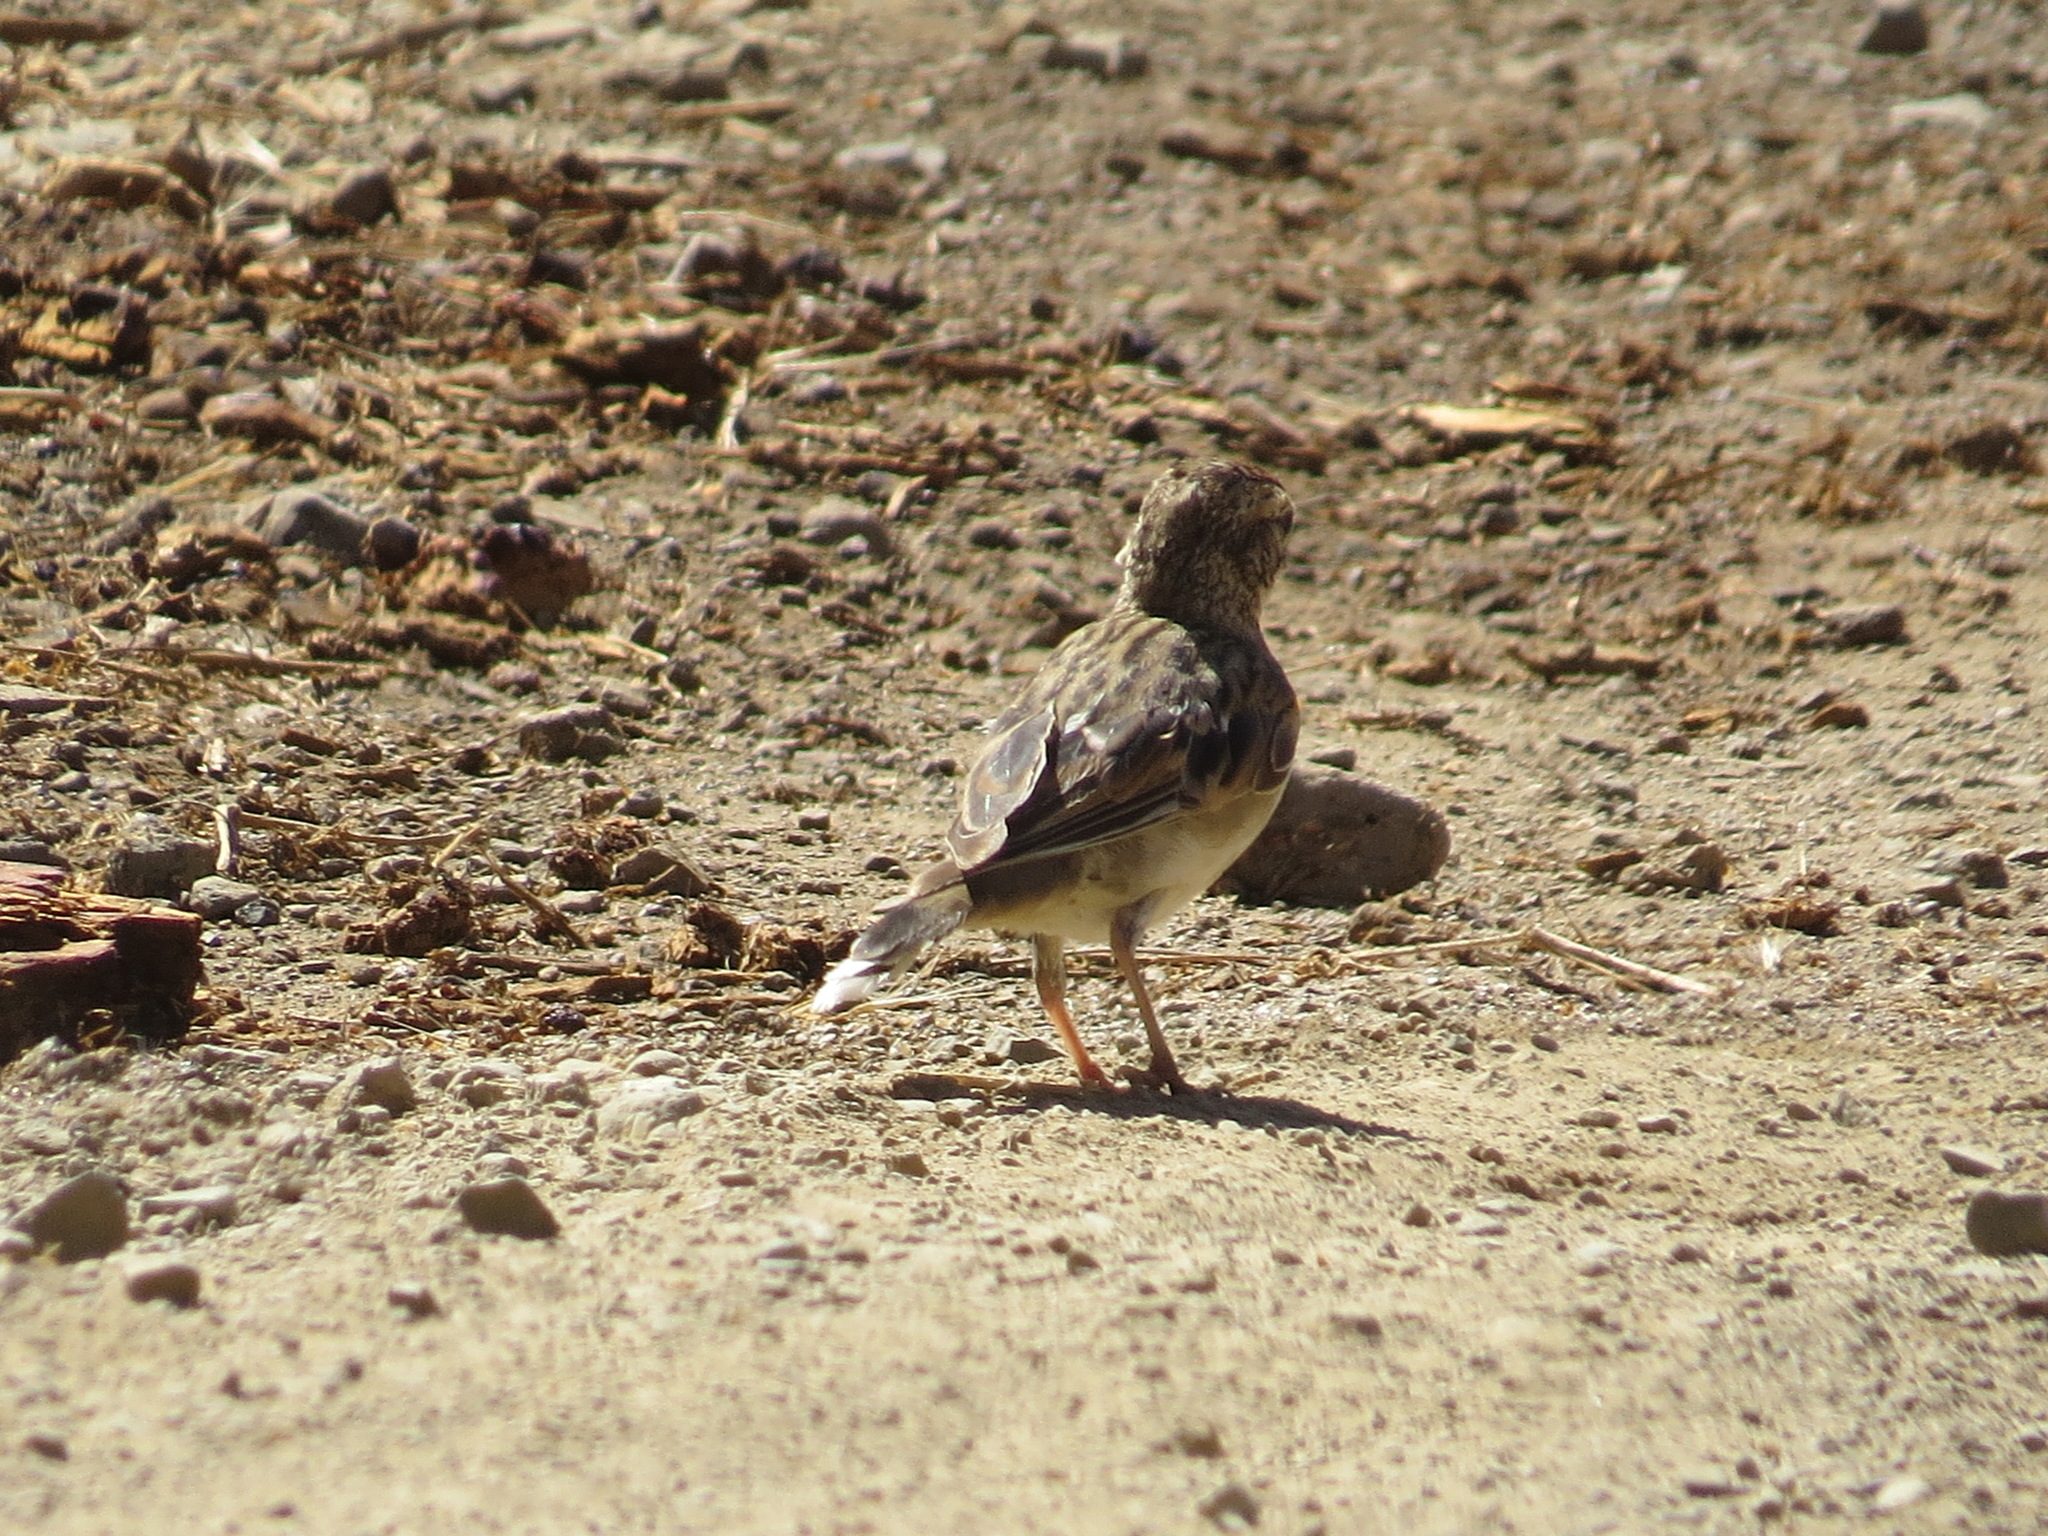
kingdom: Animalia
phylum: Chordata
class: Aves
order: Passeriformes
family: Passerellidae
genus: Chondestes
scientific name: Chondestes grammacus
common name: Lark sparrow
